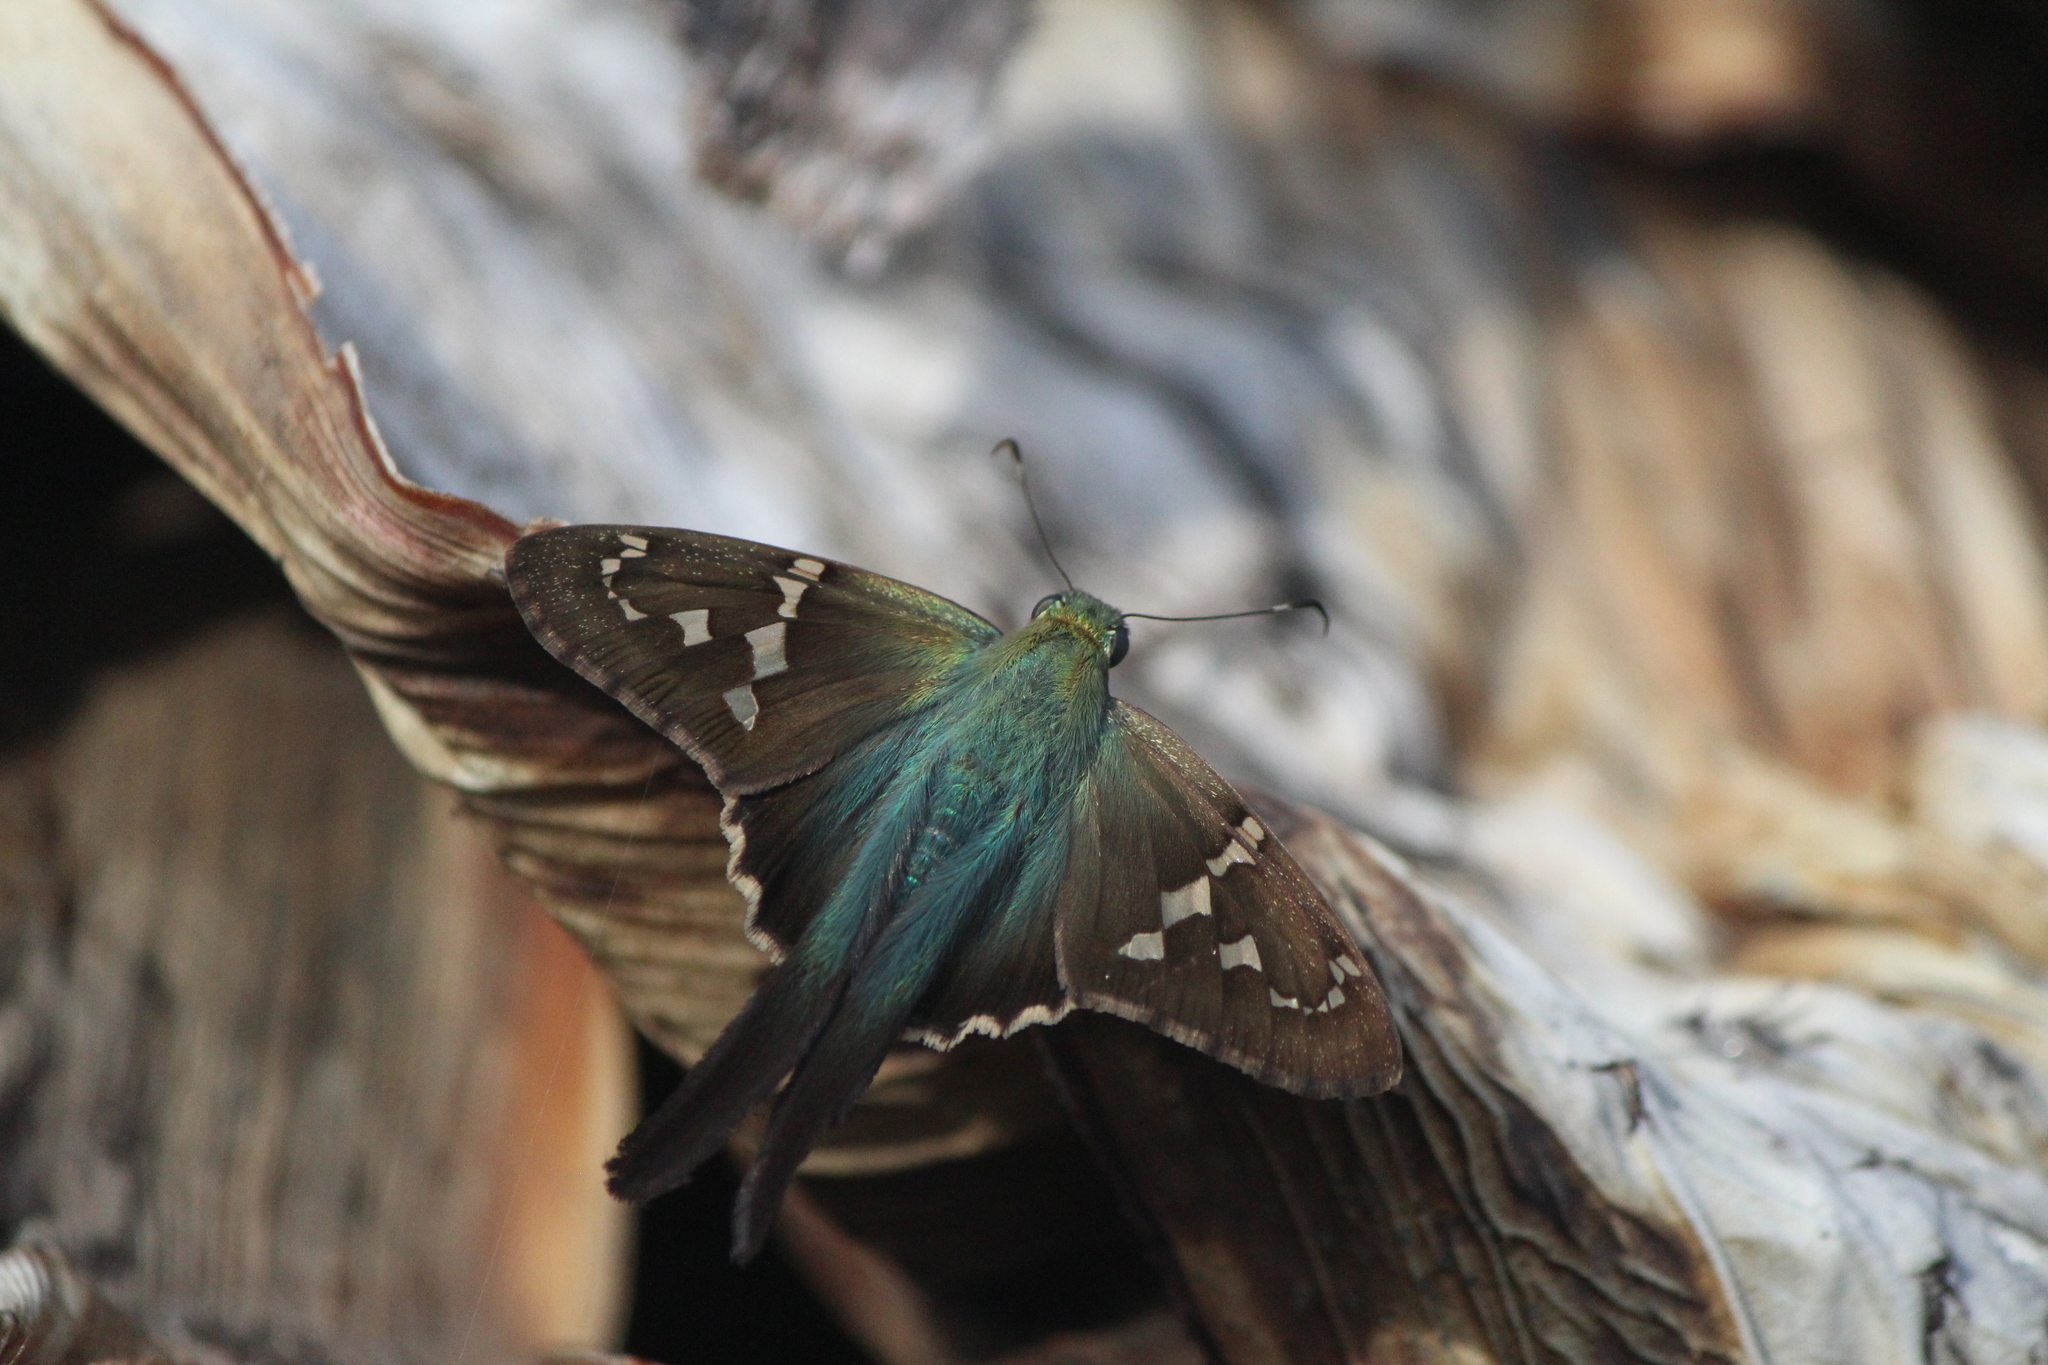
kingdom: Animalia
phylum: Arthropoda
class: Insecta
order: Lepidoptera
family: Hesperiidae
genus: Urbanus
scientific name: Urbanus proteus
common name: Long-tailed skipper
